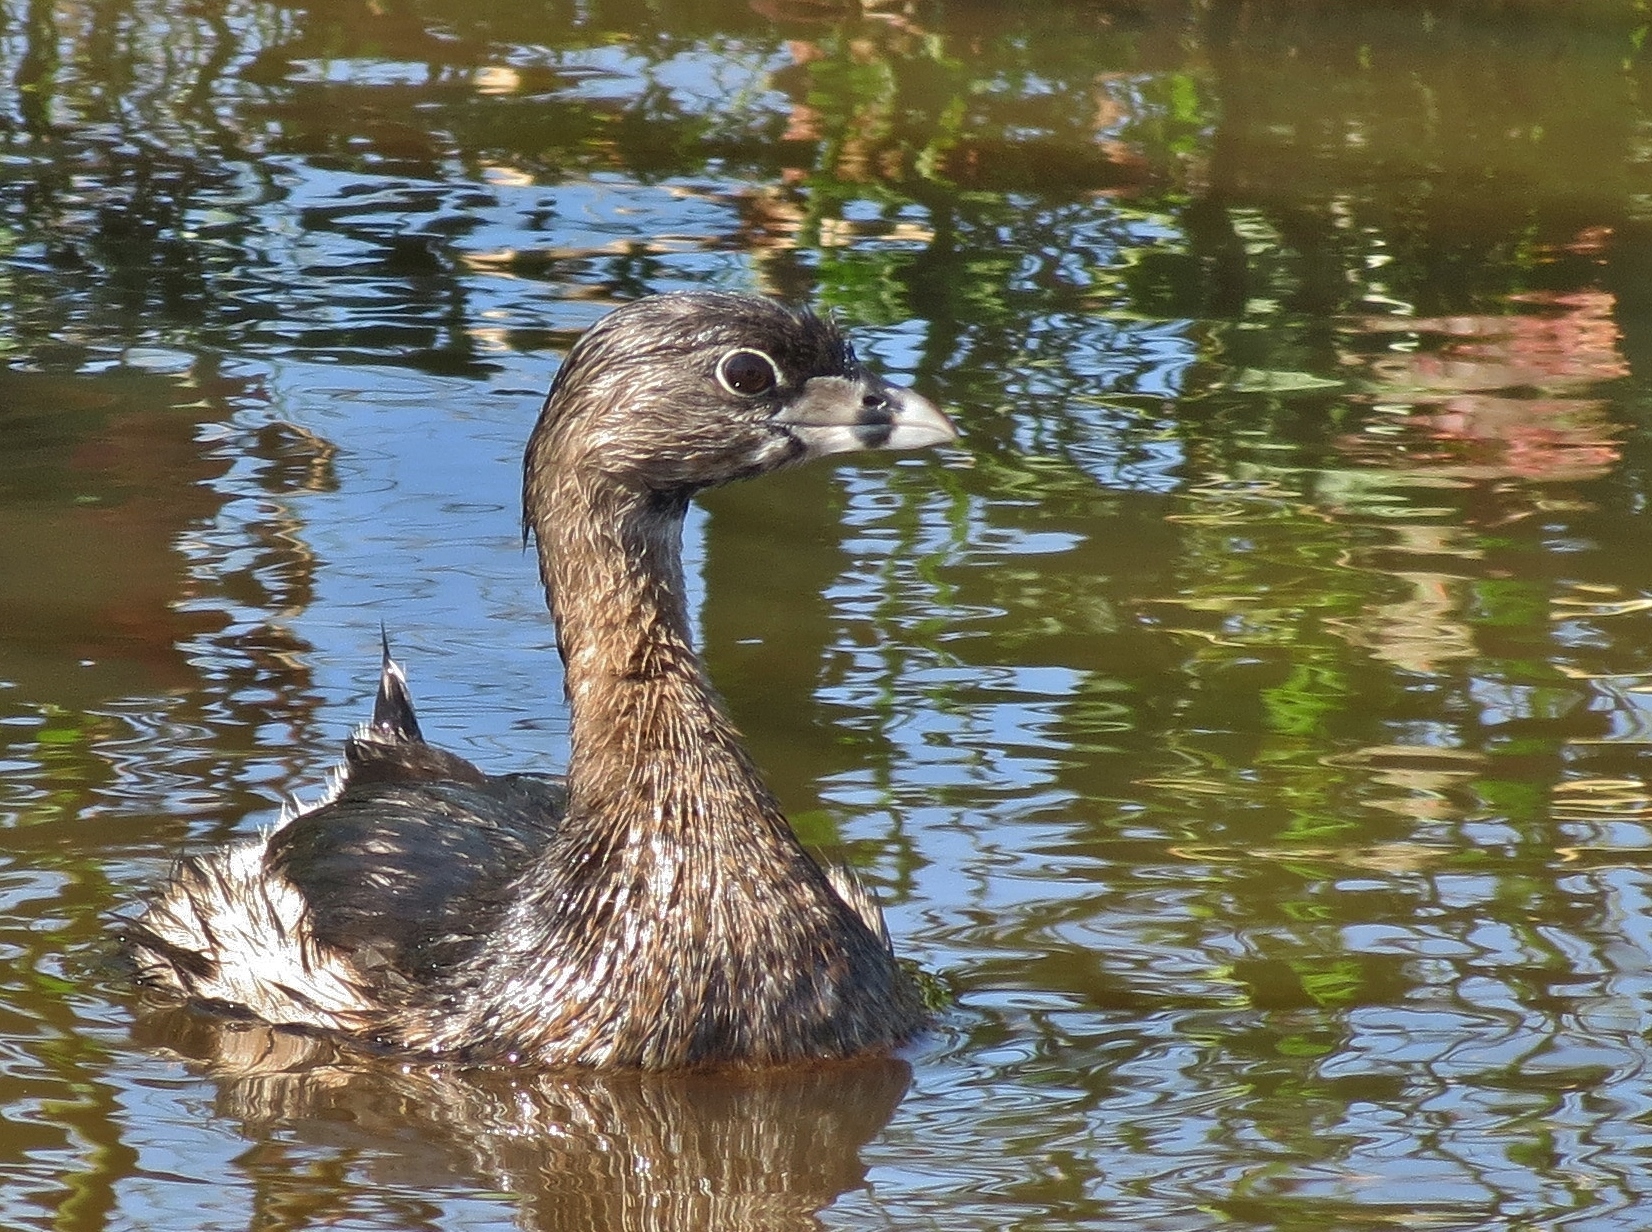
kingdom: Animalia
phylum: Chordata
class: Aves
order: Podicipediformes
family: Podicipedidae
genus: Podilymbus
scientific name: Podilymbus podiceps
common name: Pied-billed grebe
